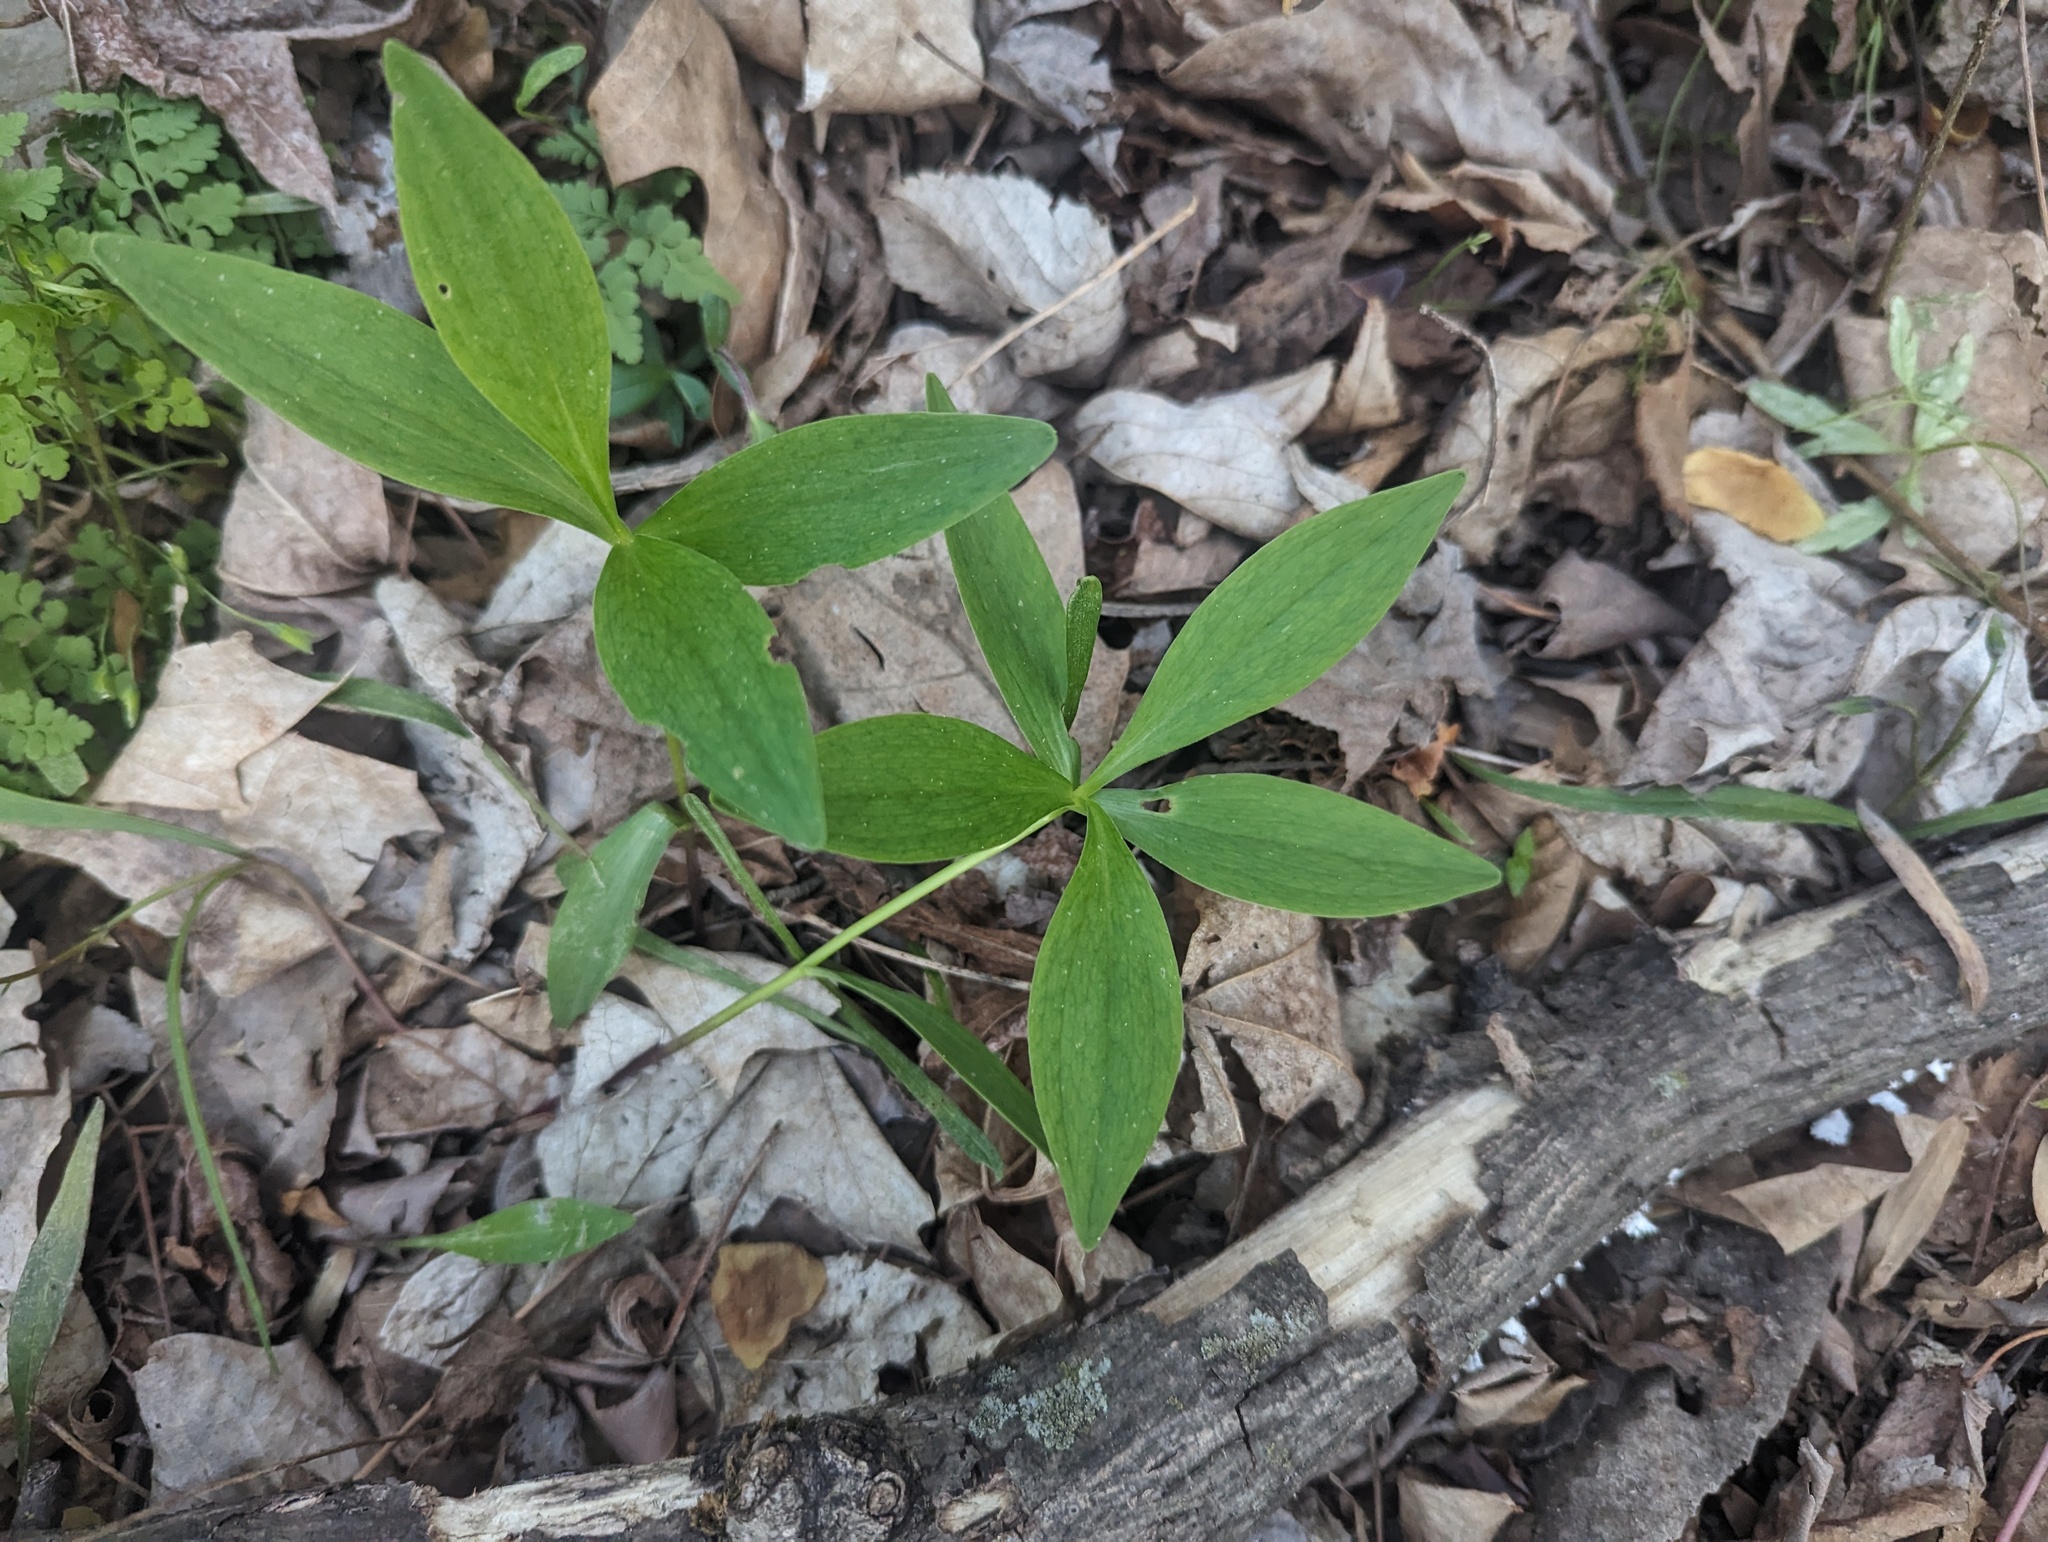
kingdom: Plantae
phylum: Tracheophyta
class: Liliopsida
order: Liliales
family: Liliaceae
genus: Lilium
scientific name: Lilium michiganense
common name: Michigan lily
